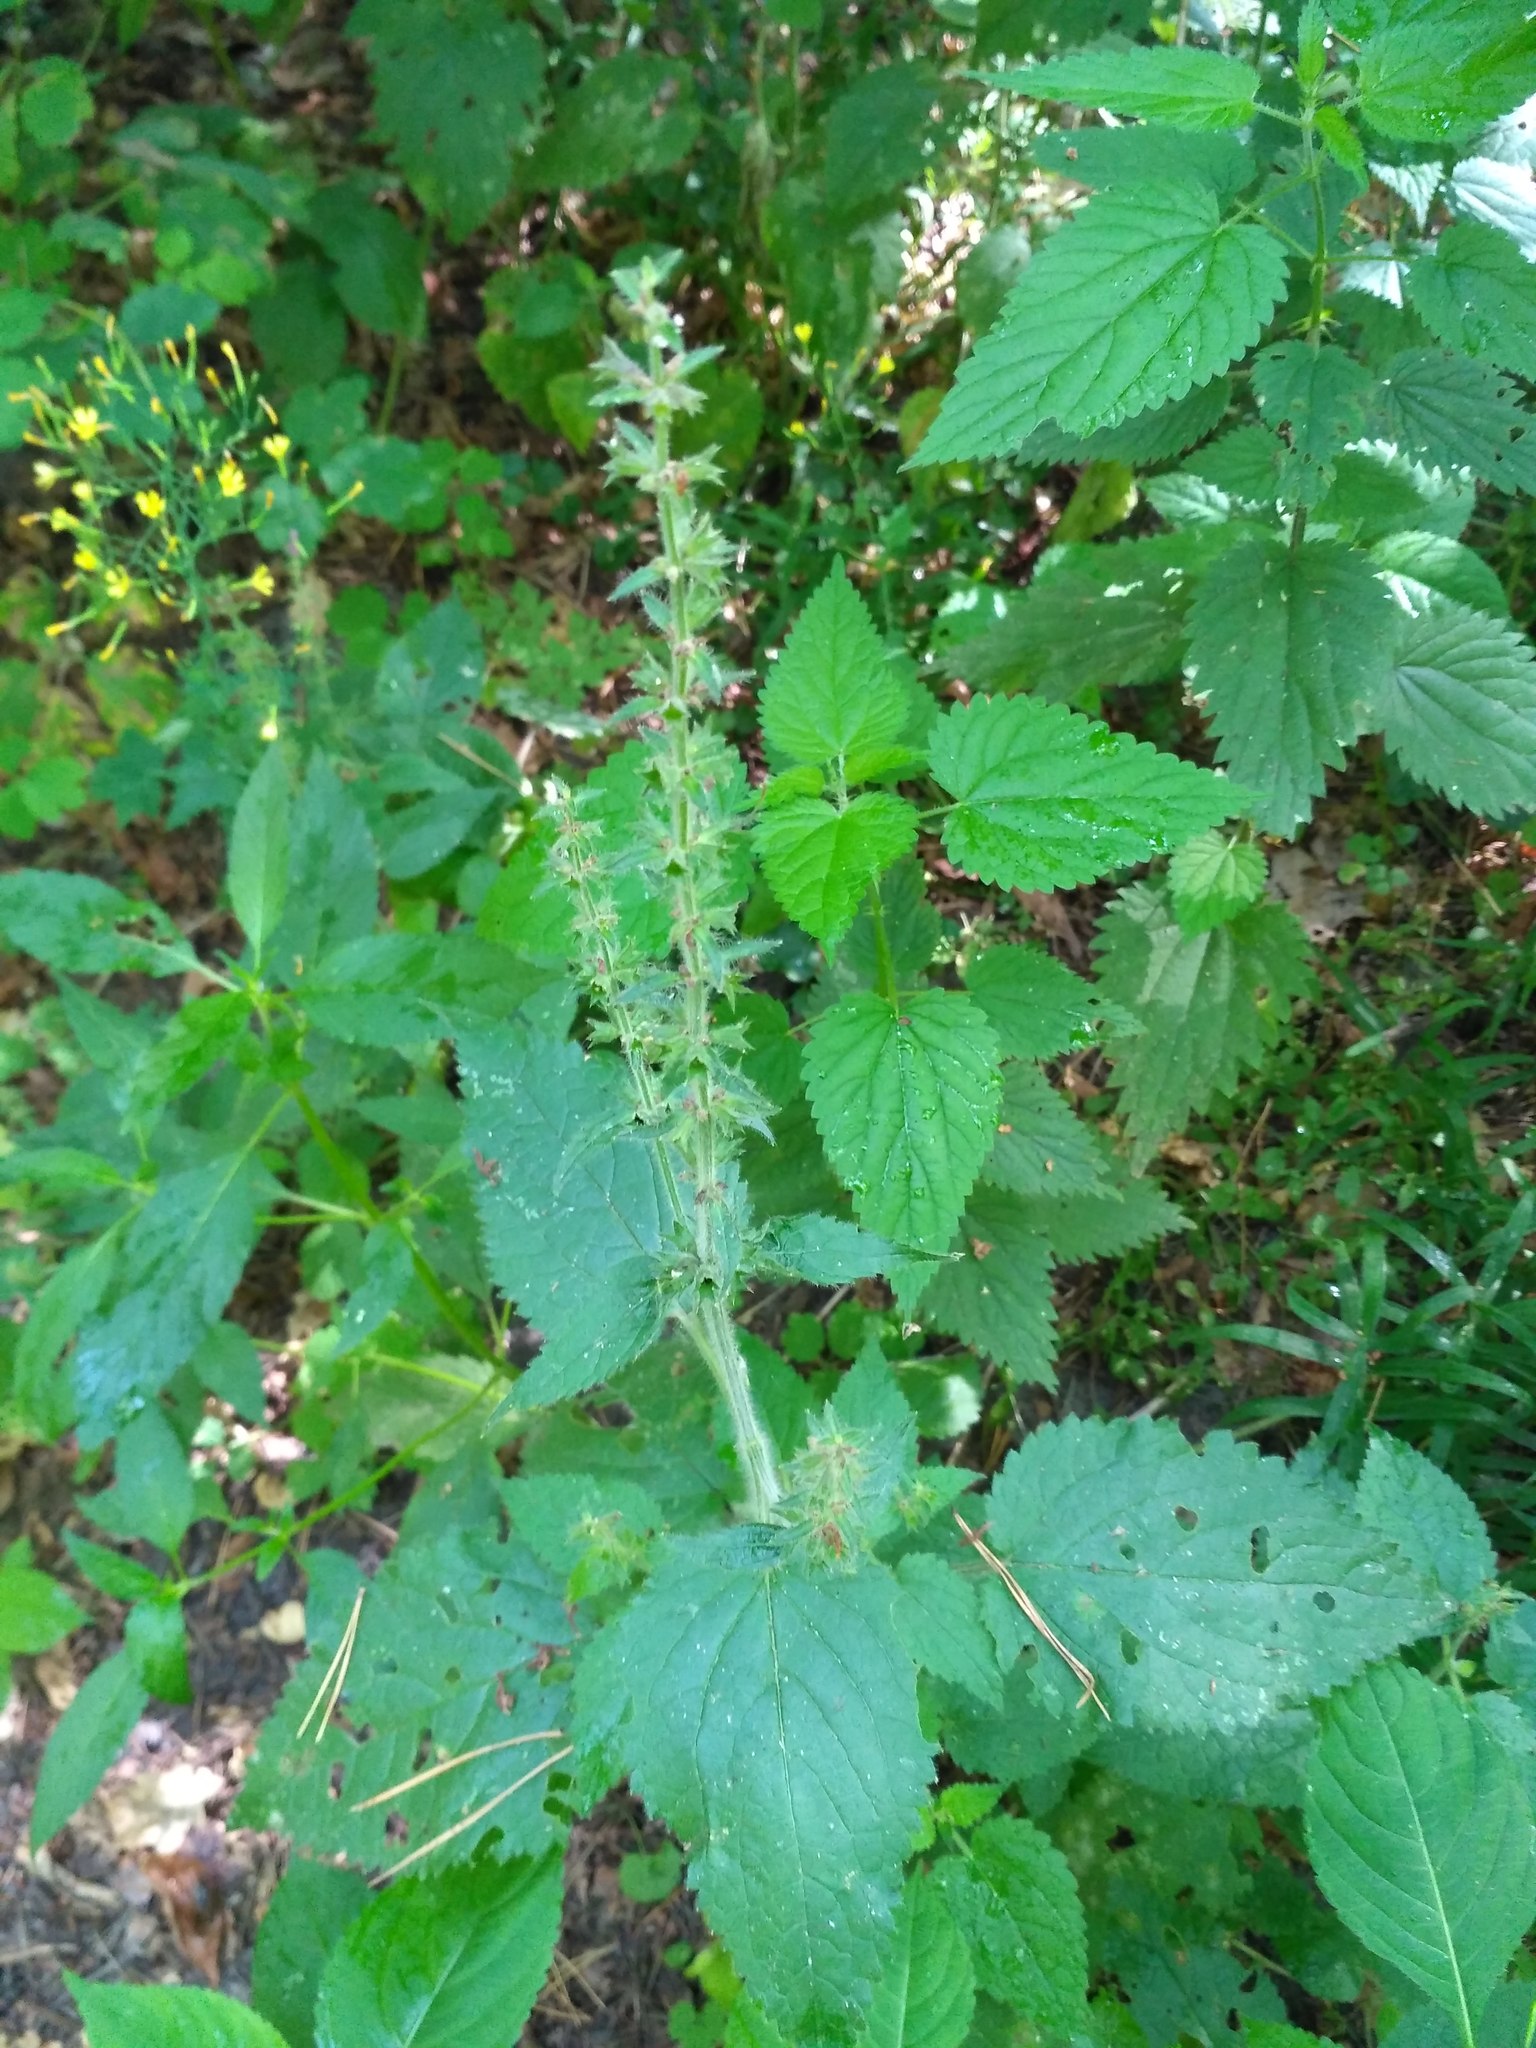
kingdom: Plantae
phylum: Tracheophyta
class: Magnoliopsida
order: Lamiales
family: Lamiaceae
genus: Stachys
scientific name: Stachys sylvatica
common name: Hedge woundwort
